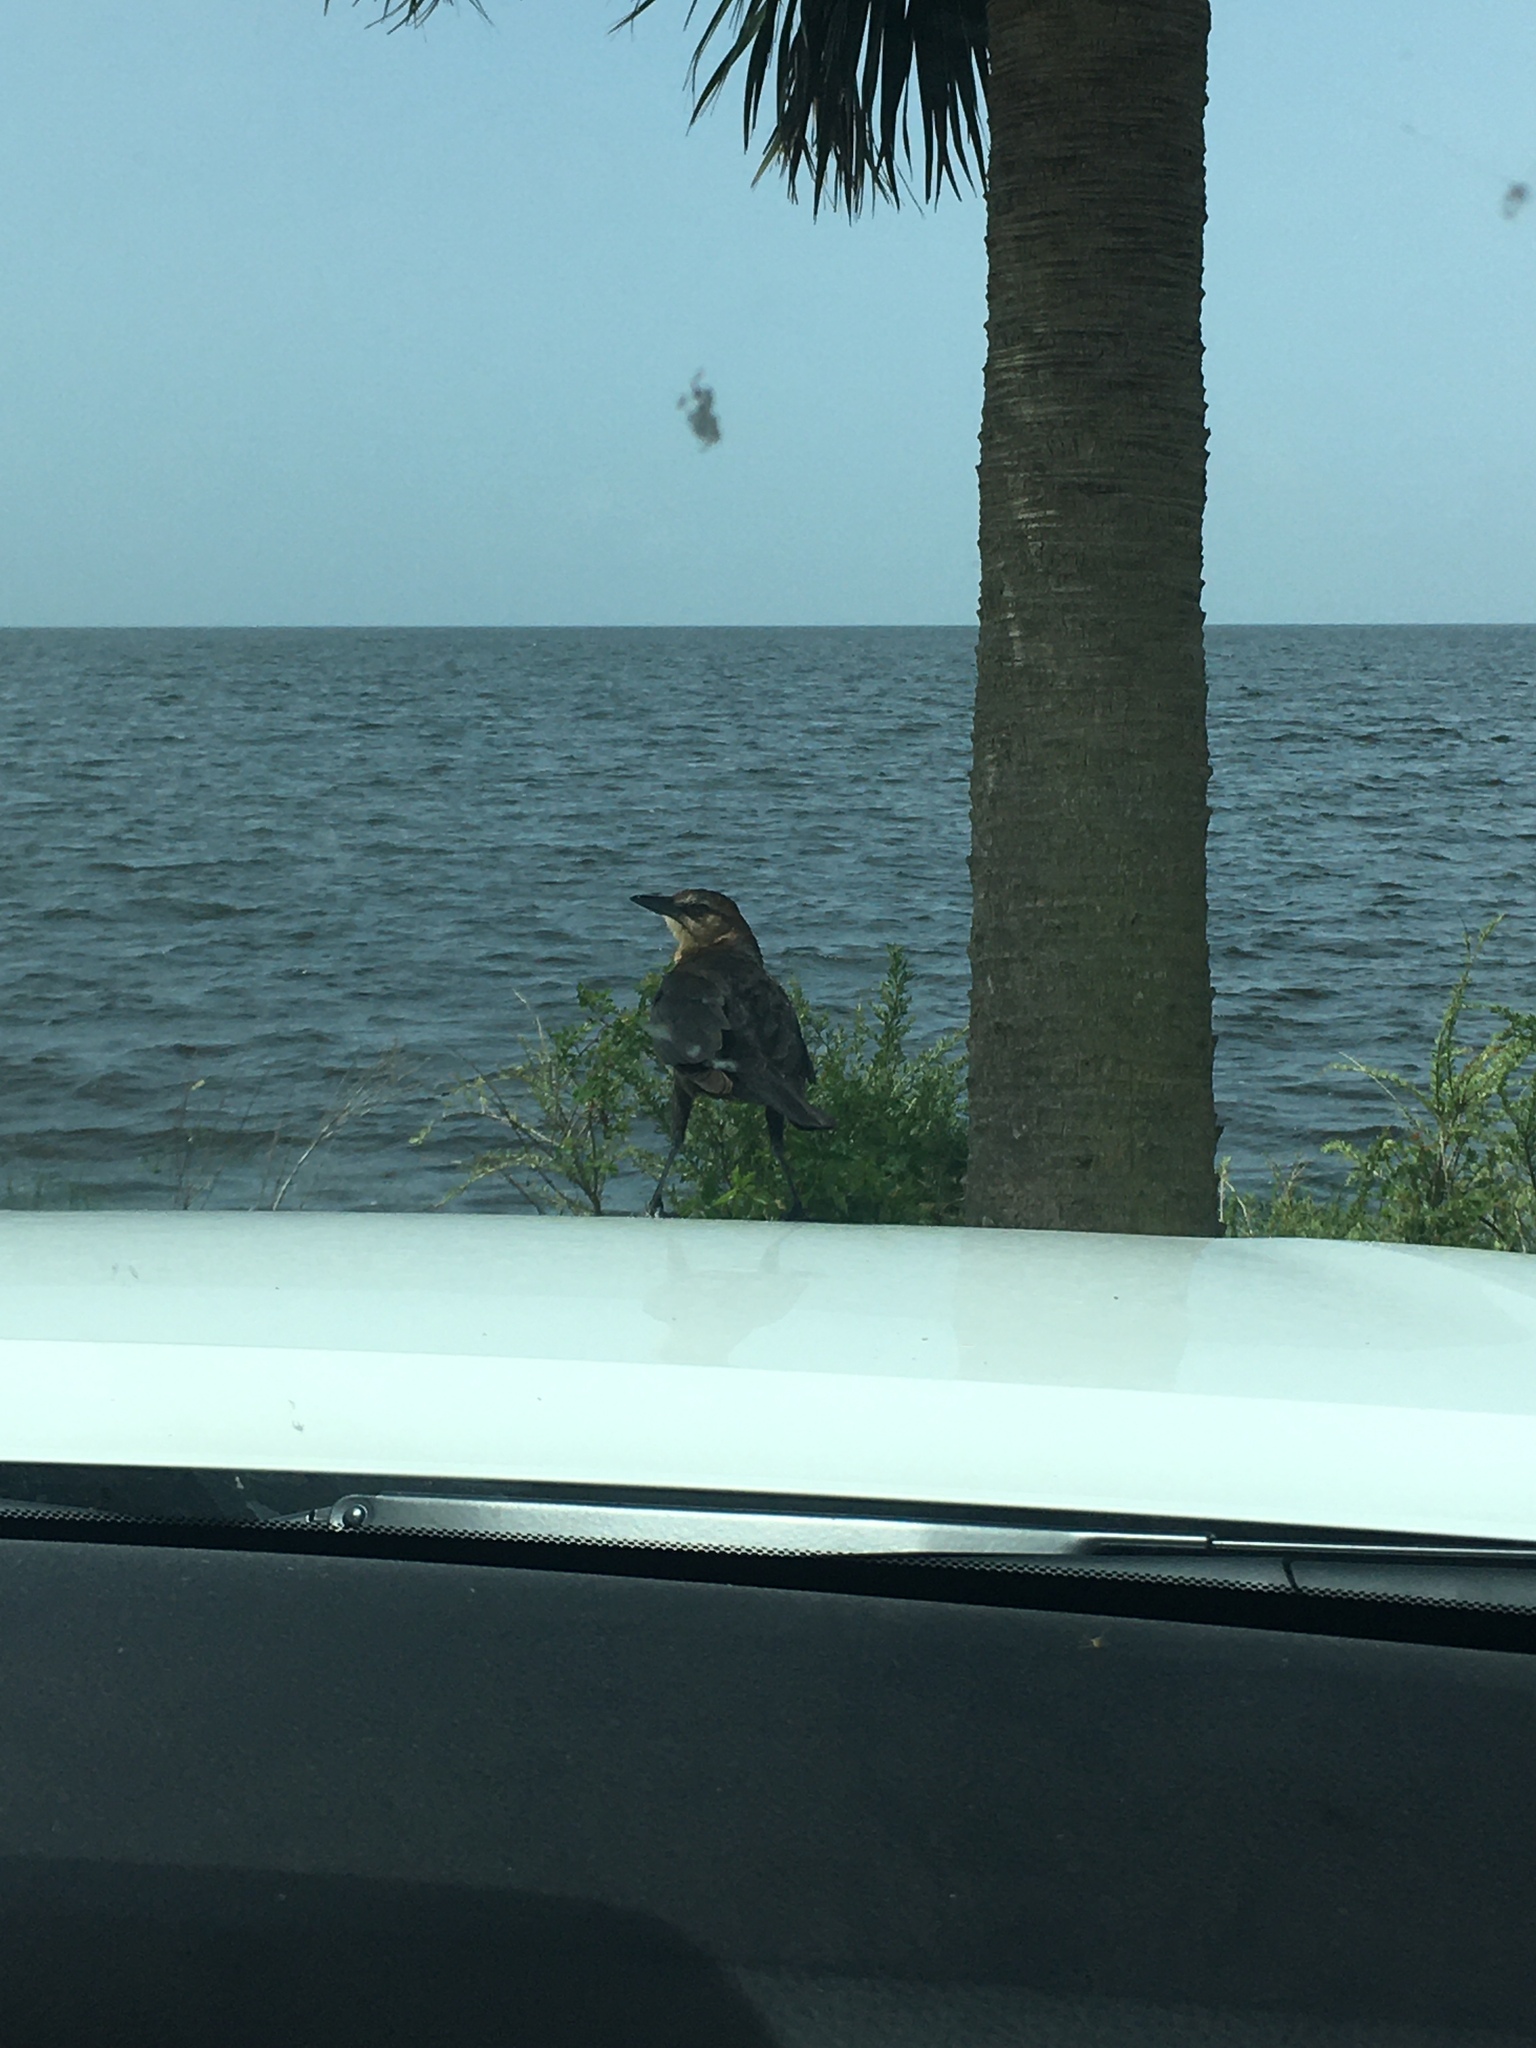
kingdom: Animalia
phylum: Chordata
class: Aves
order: Passeriformes
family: Icteridae
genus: Quiscalus
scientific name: Quiscalus major
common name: Boat-tailed grackle
